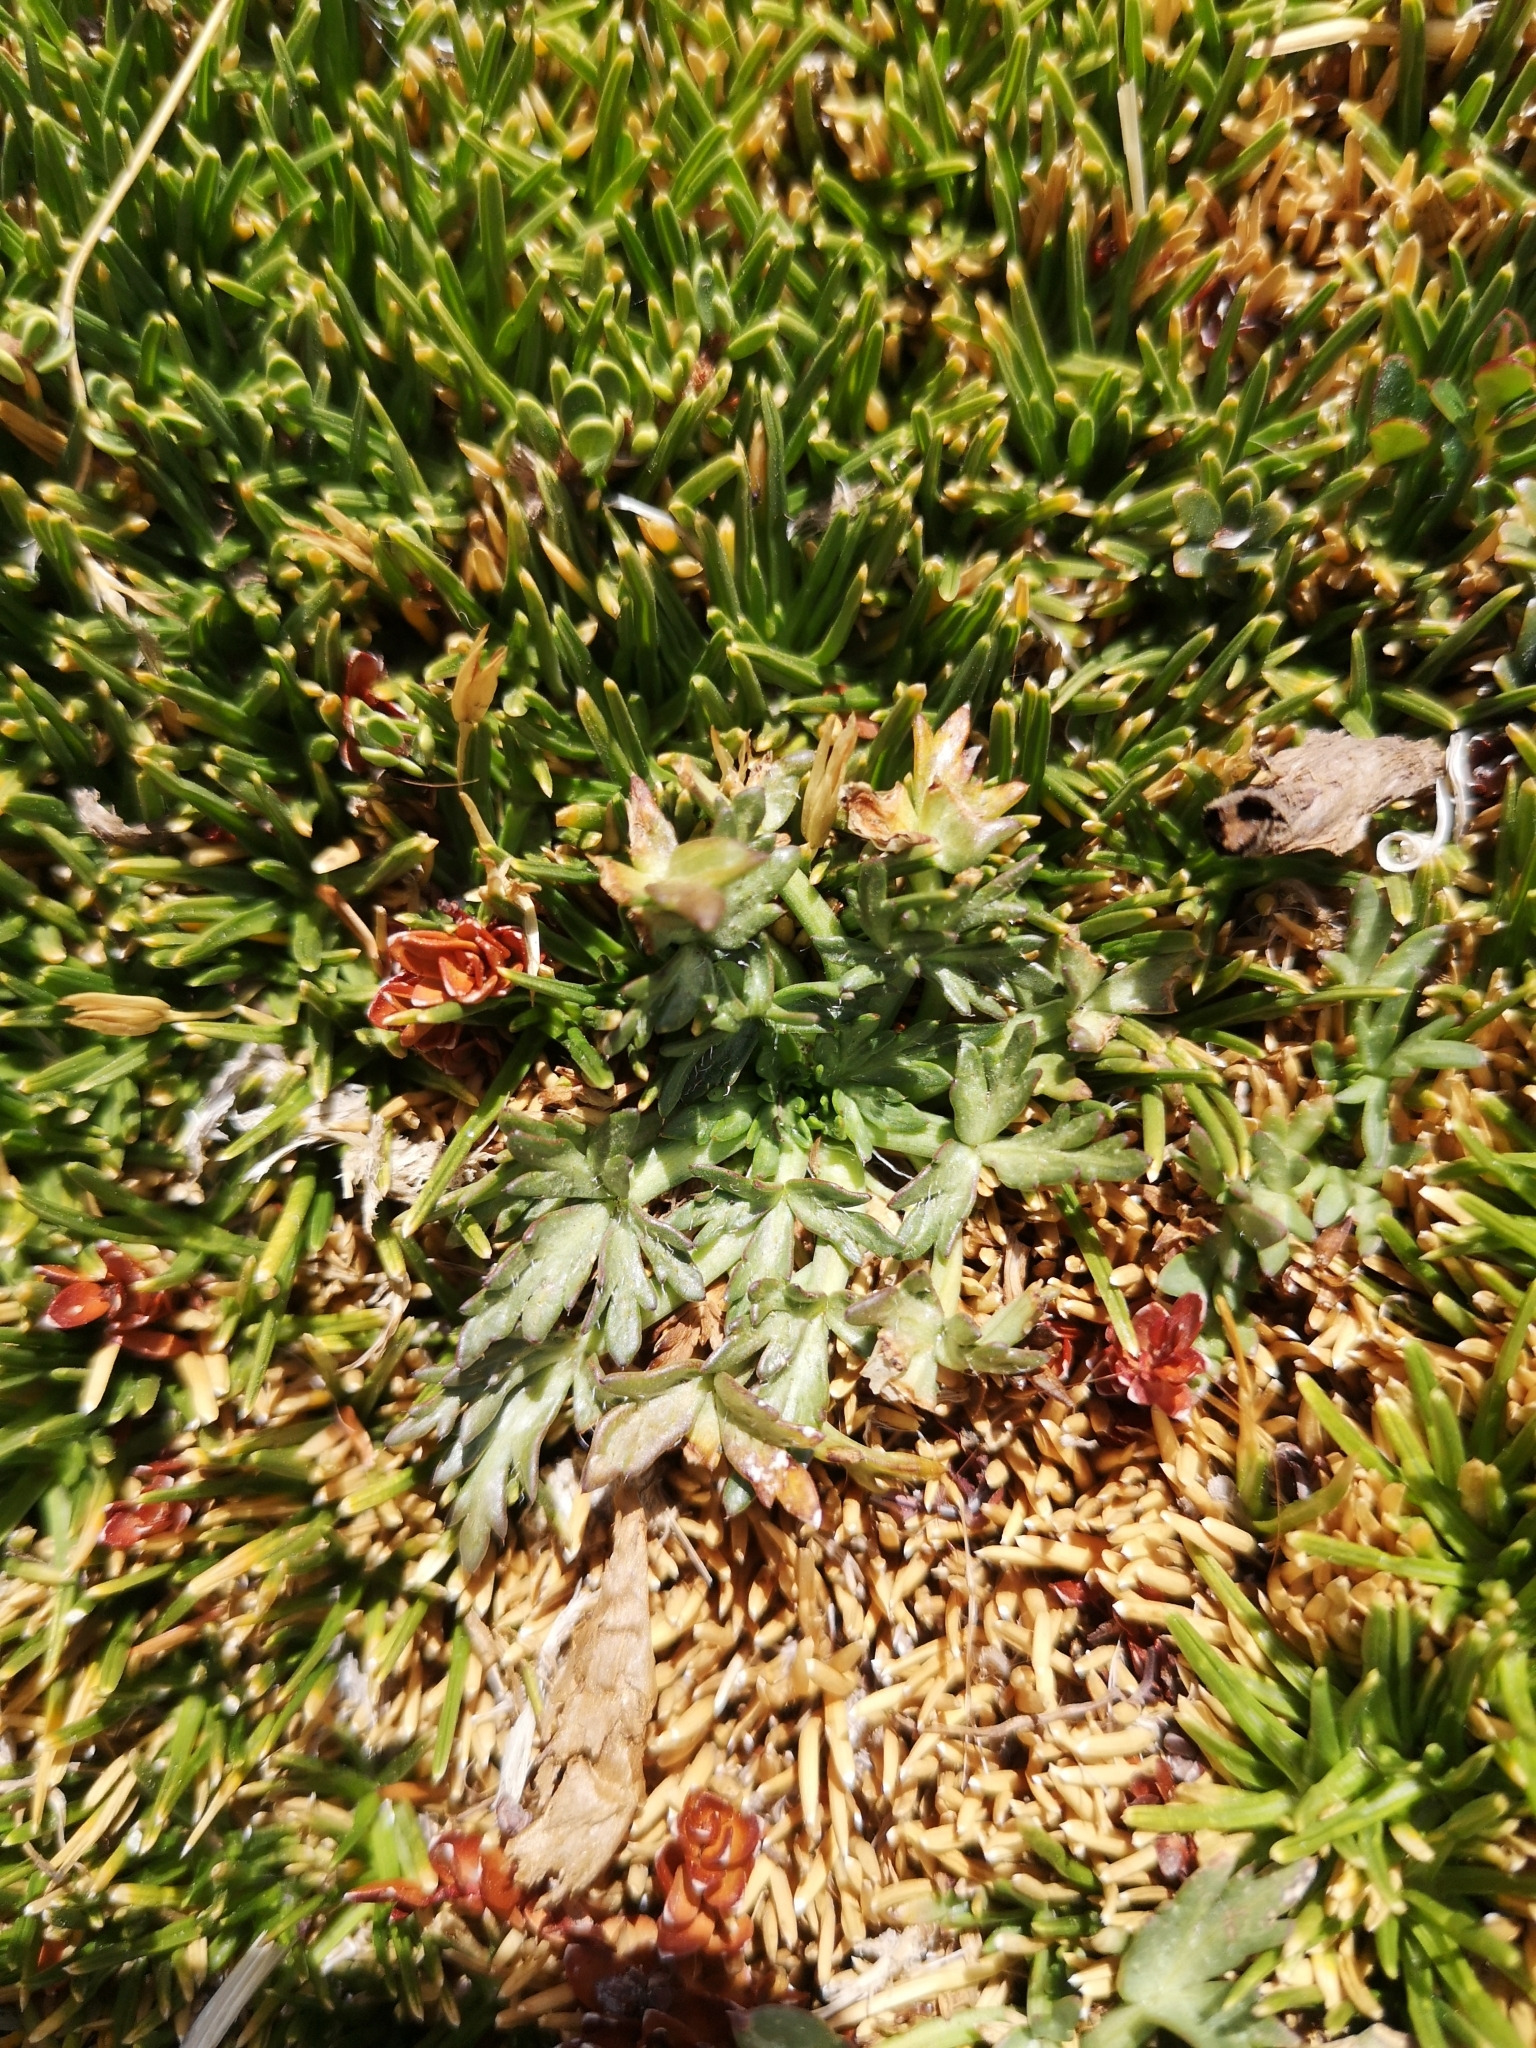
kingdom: Plantae
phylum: Tracheophyta
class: Magnoliopsida
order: Apiales
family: Apiaceae
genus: Azorella
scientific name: Azorella trifoliolata
